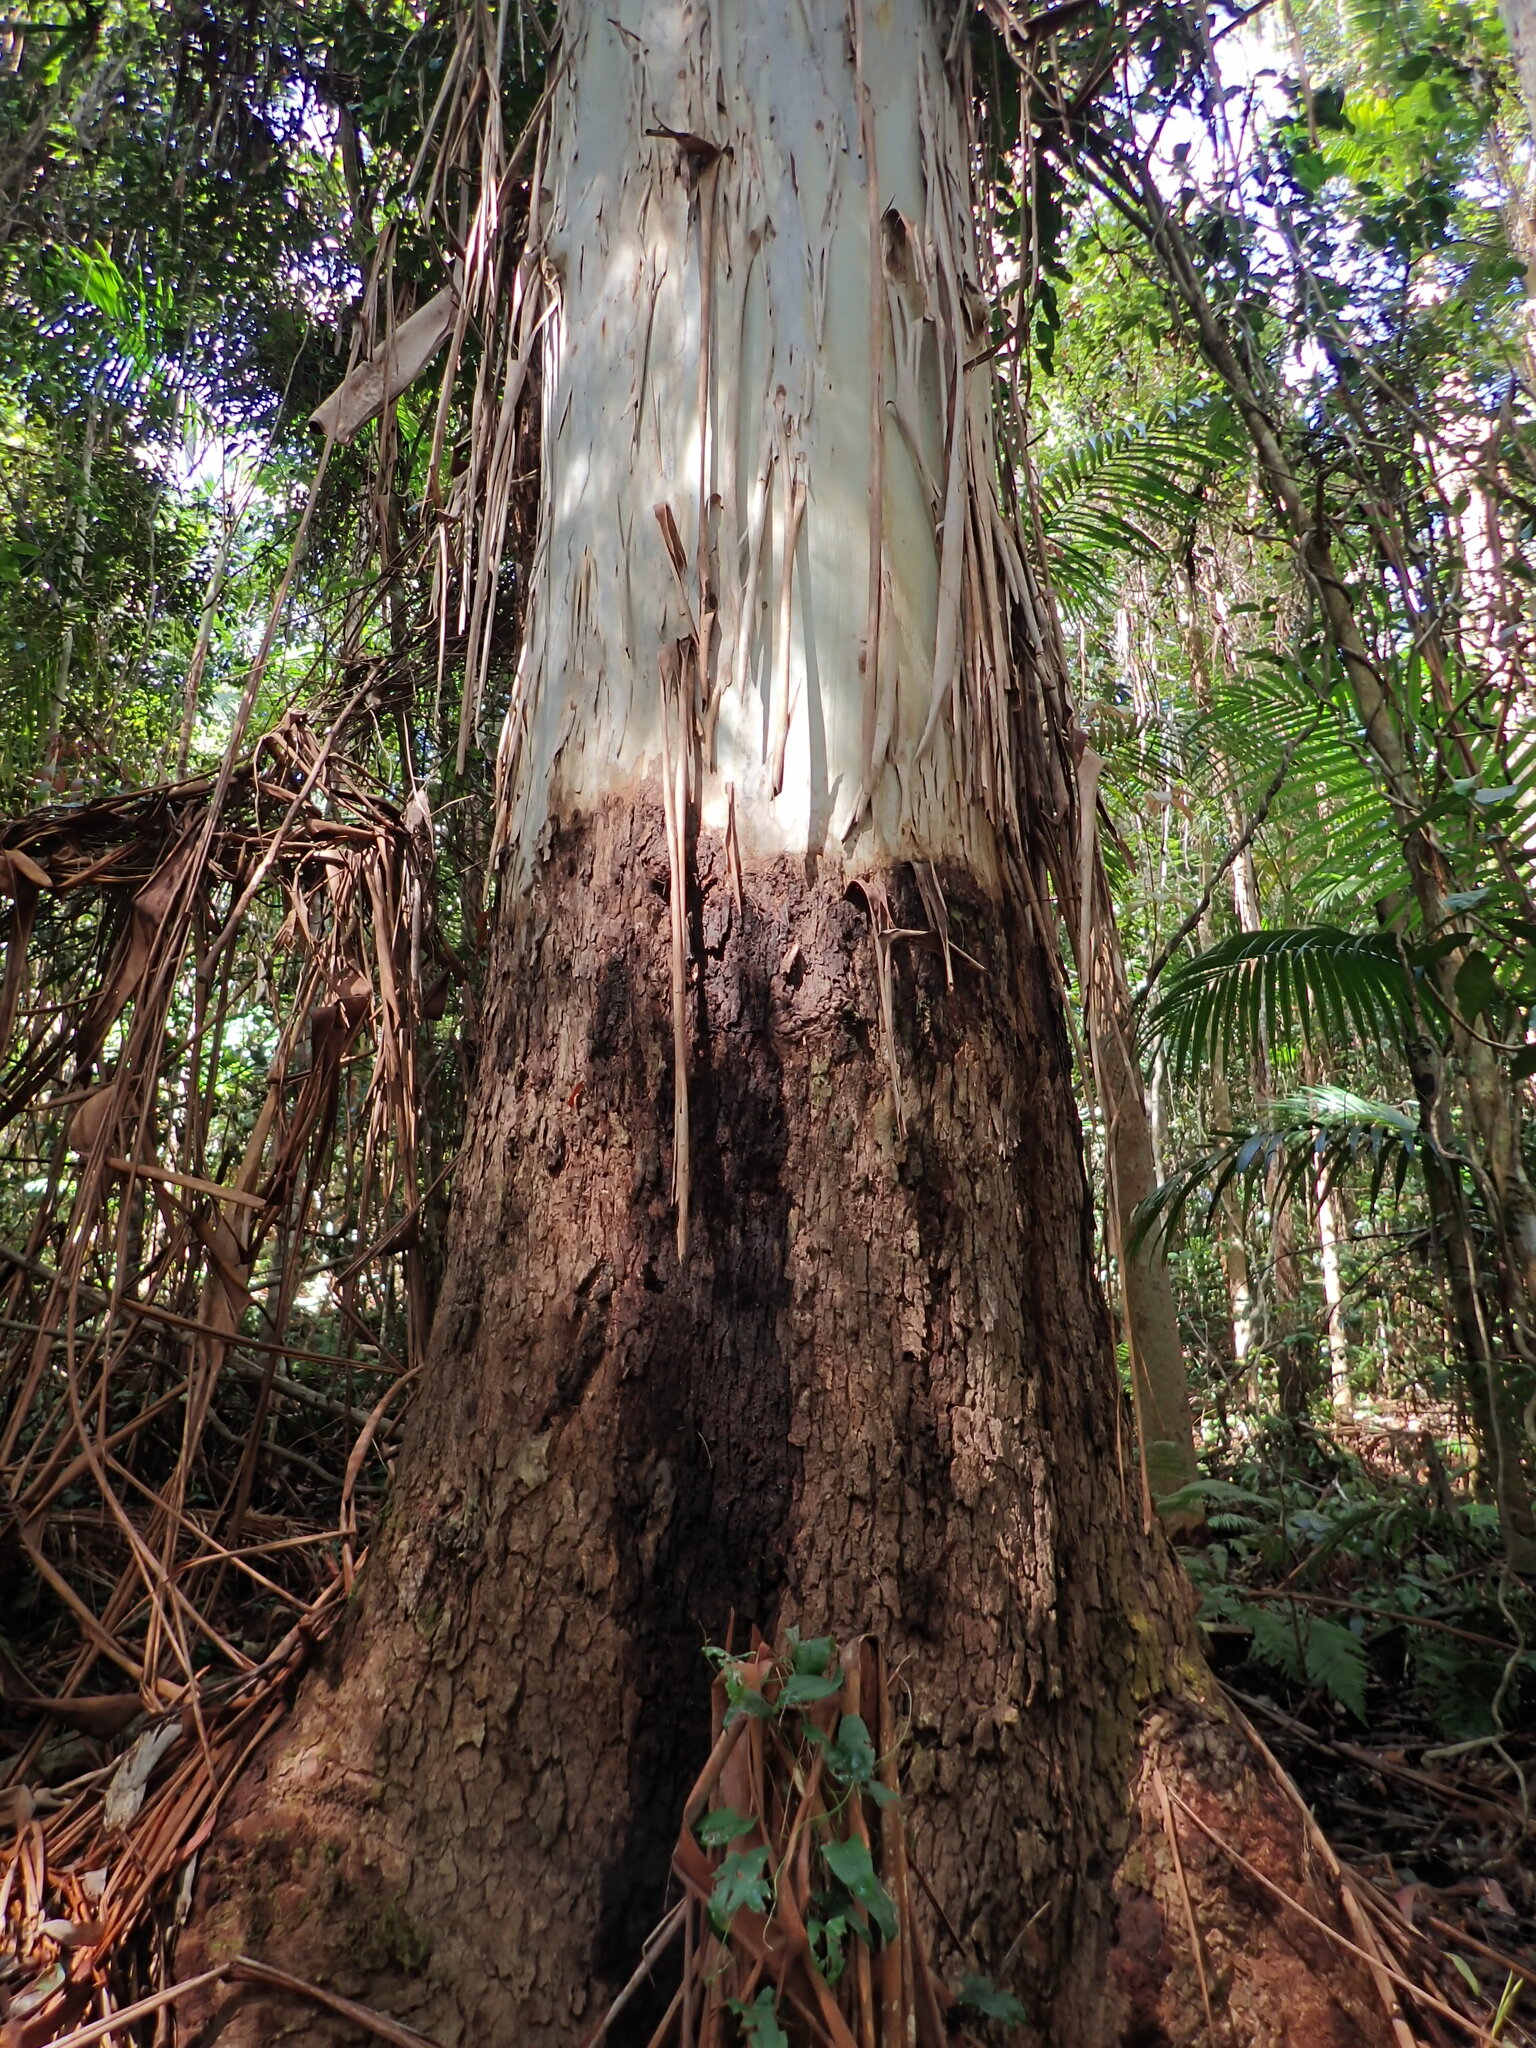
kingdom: Plantae
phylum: Tracheophyta
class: Magnoliopsida
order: Myrtales
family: Myrtaceae
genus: Eucalyptus
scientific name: Eucalyptus grandis
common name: Grand eucalyptus
